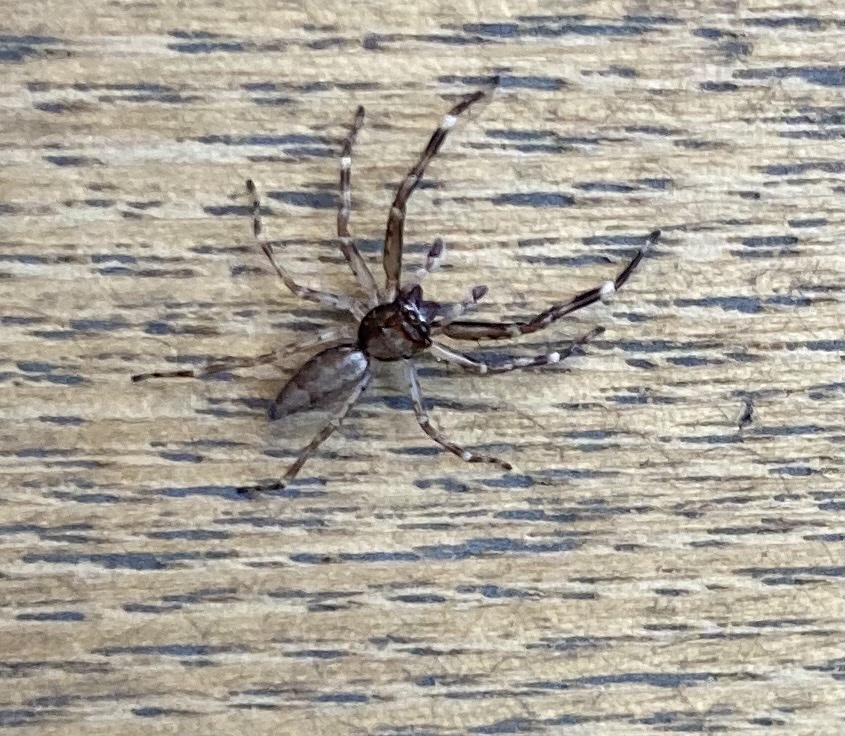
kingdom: Animalia
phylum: Arthropoda
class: Arachnida
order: Araneae
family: Salticidae
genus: Helpis
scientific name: Helpis minitabunda
